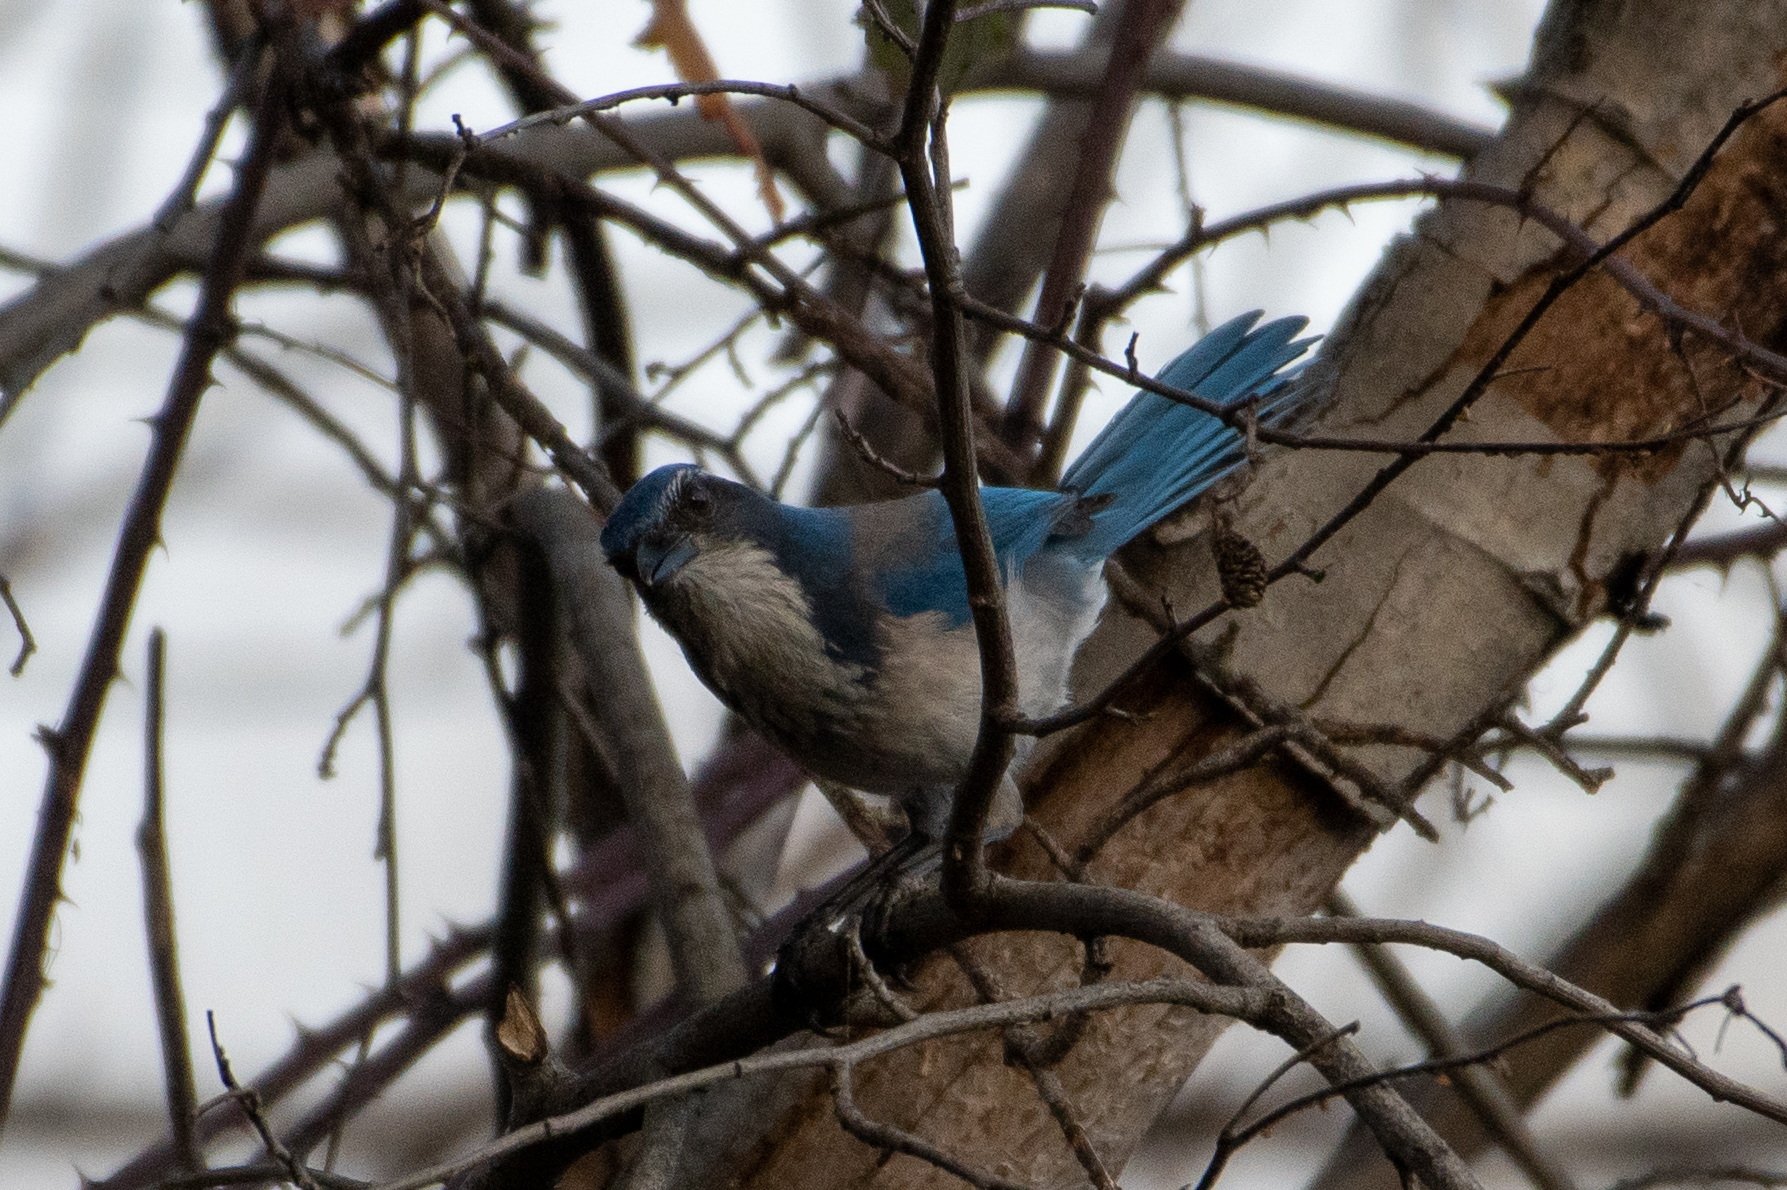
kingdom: Animalia
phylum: Chordata
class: Aves
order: Passeriformes
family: Corvidae
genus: Aphelocoma
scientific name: Aphelocoma californica
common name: California scrub-jay
